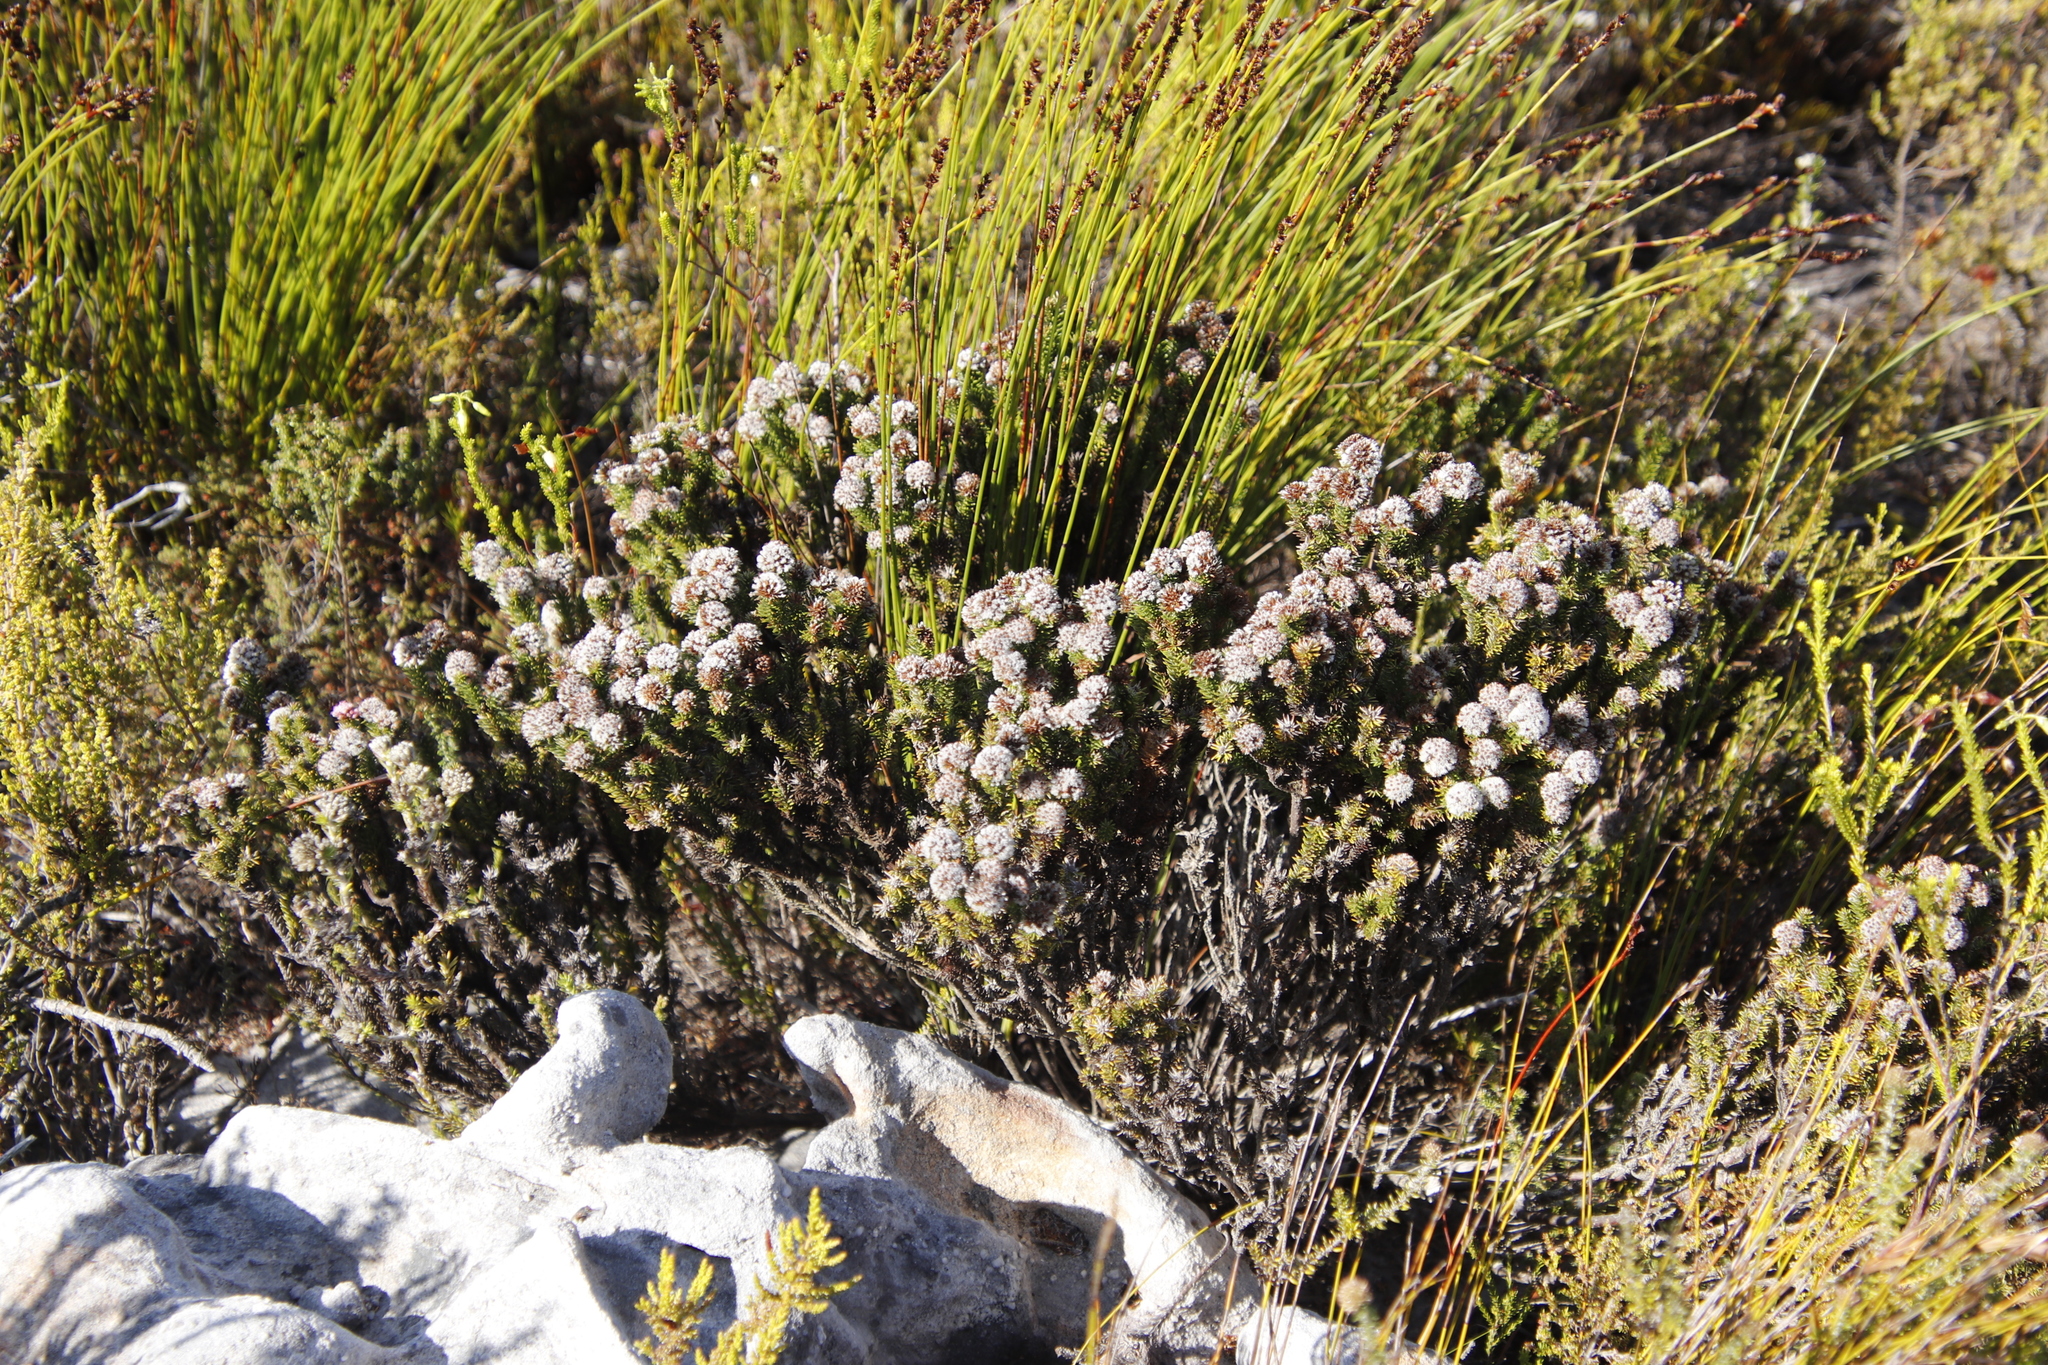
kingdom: Plantae
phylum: Tracheophyta
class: Magnoliopsida
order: Asterales
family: Asteraceae
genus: Stoebe
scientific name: Stoebe rosea
